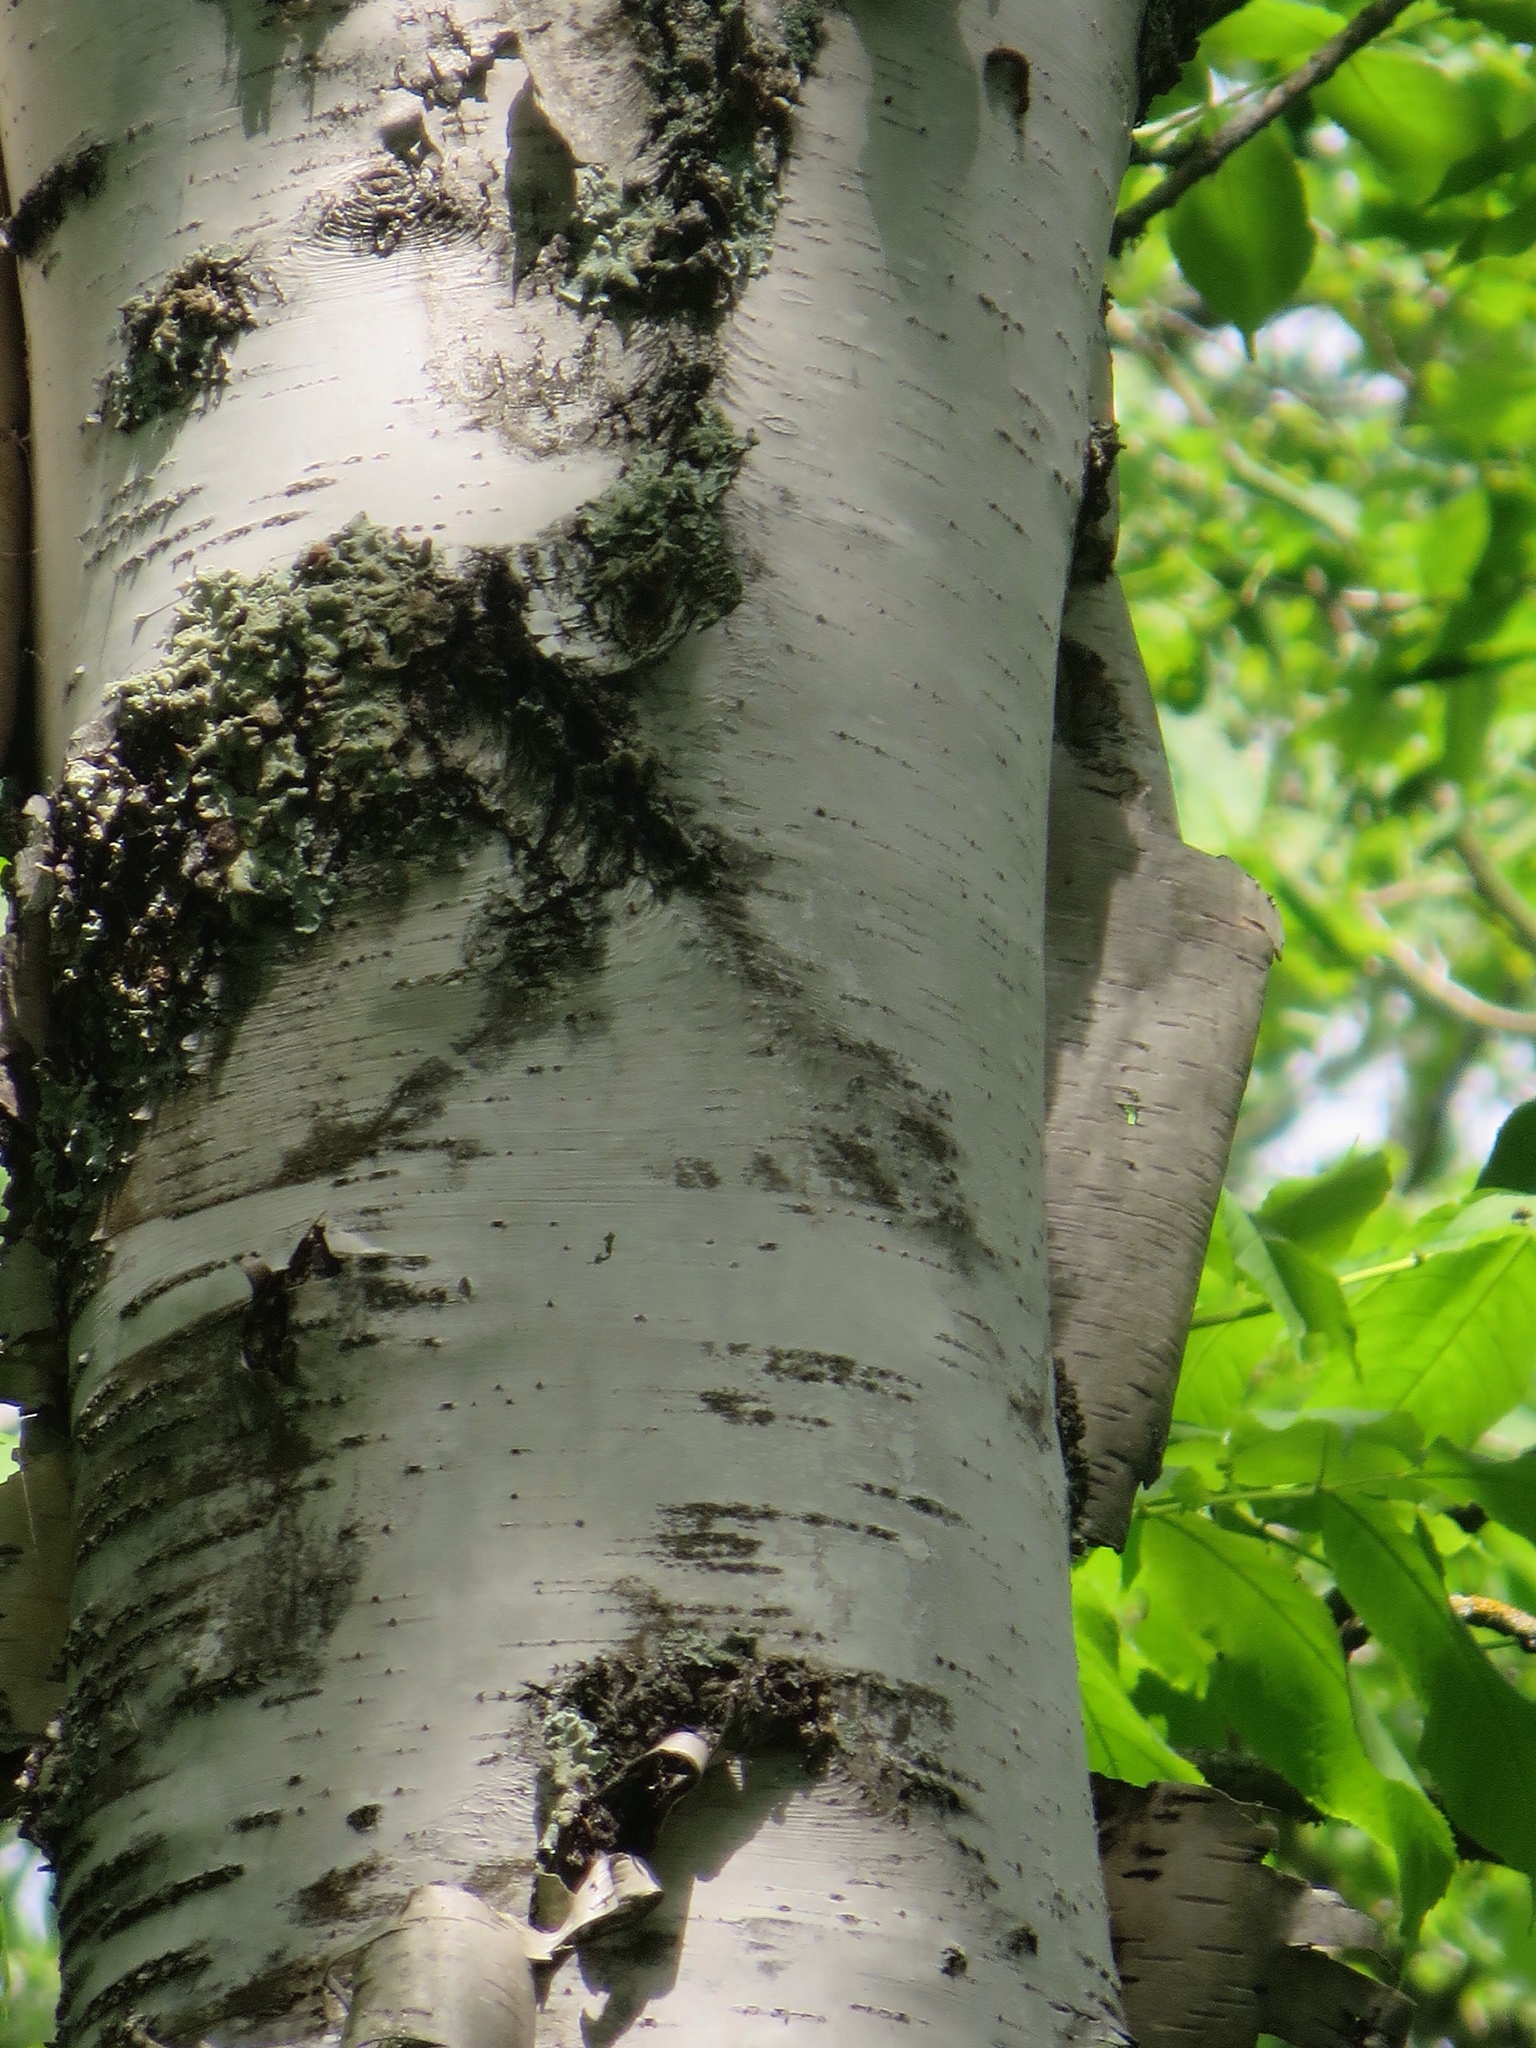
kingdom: Plantae
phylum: Tracheophyta
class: Magnoliopsida
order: Fagales
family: Betulaceae
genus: Betula
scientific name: Betula papyrifera
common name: Paper birch
